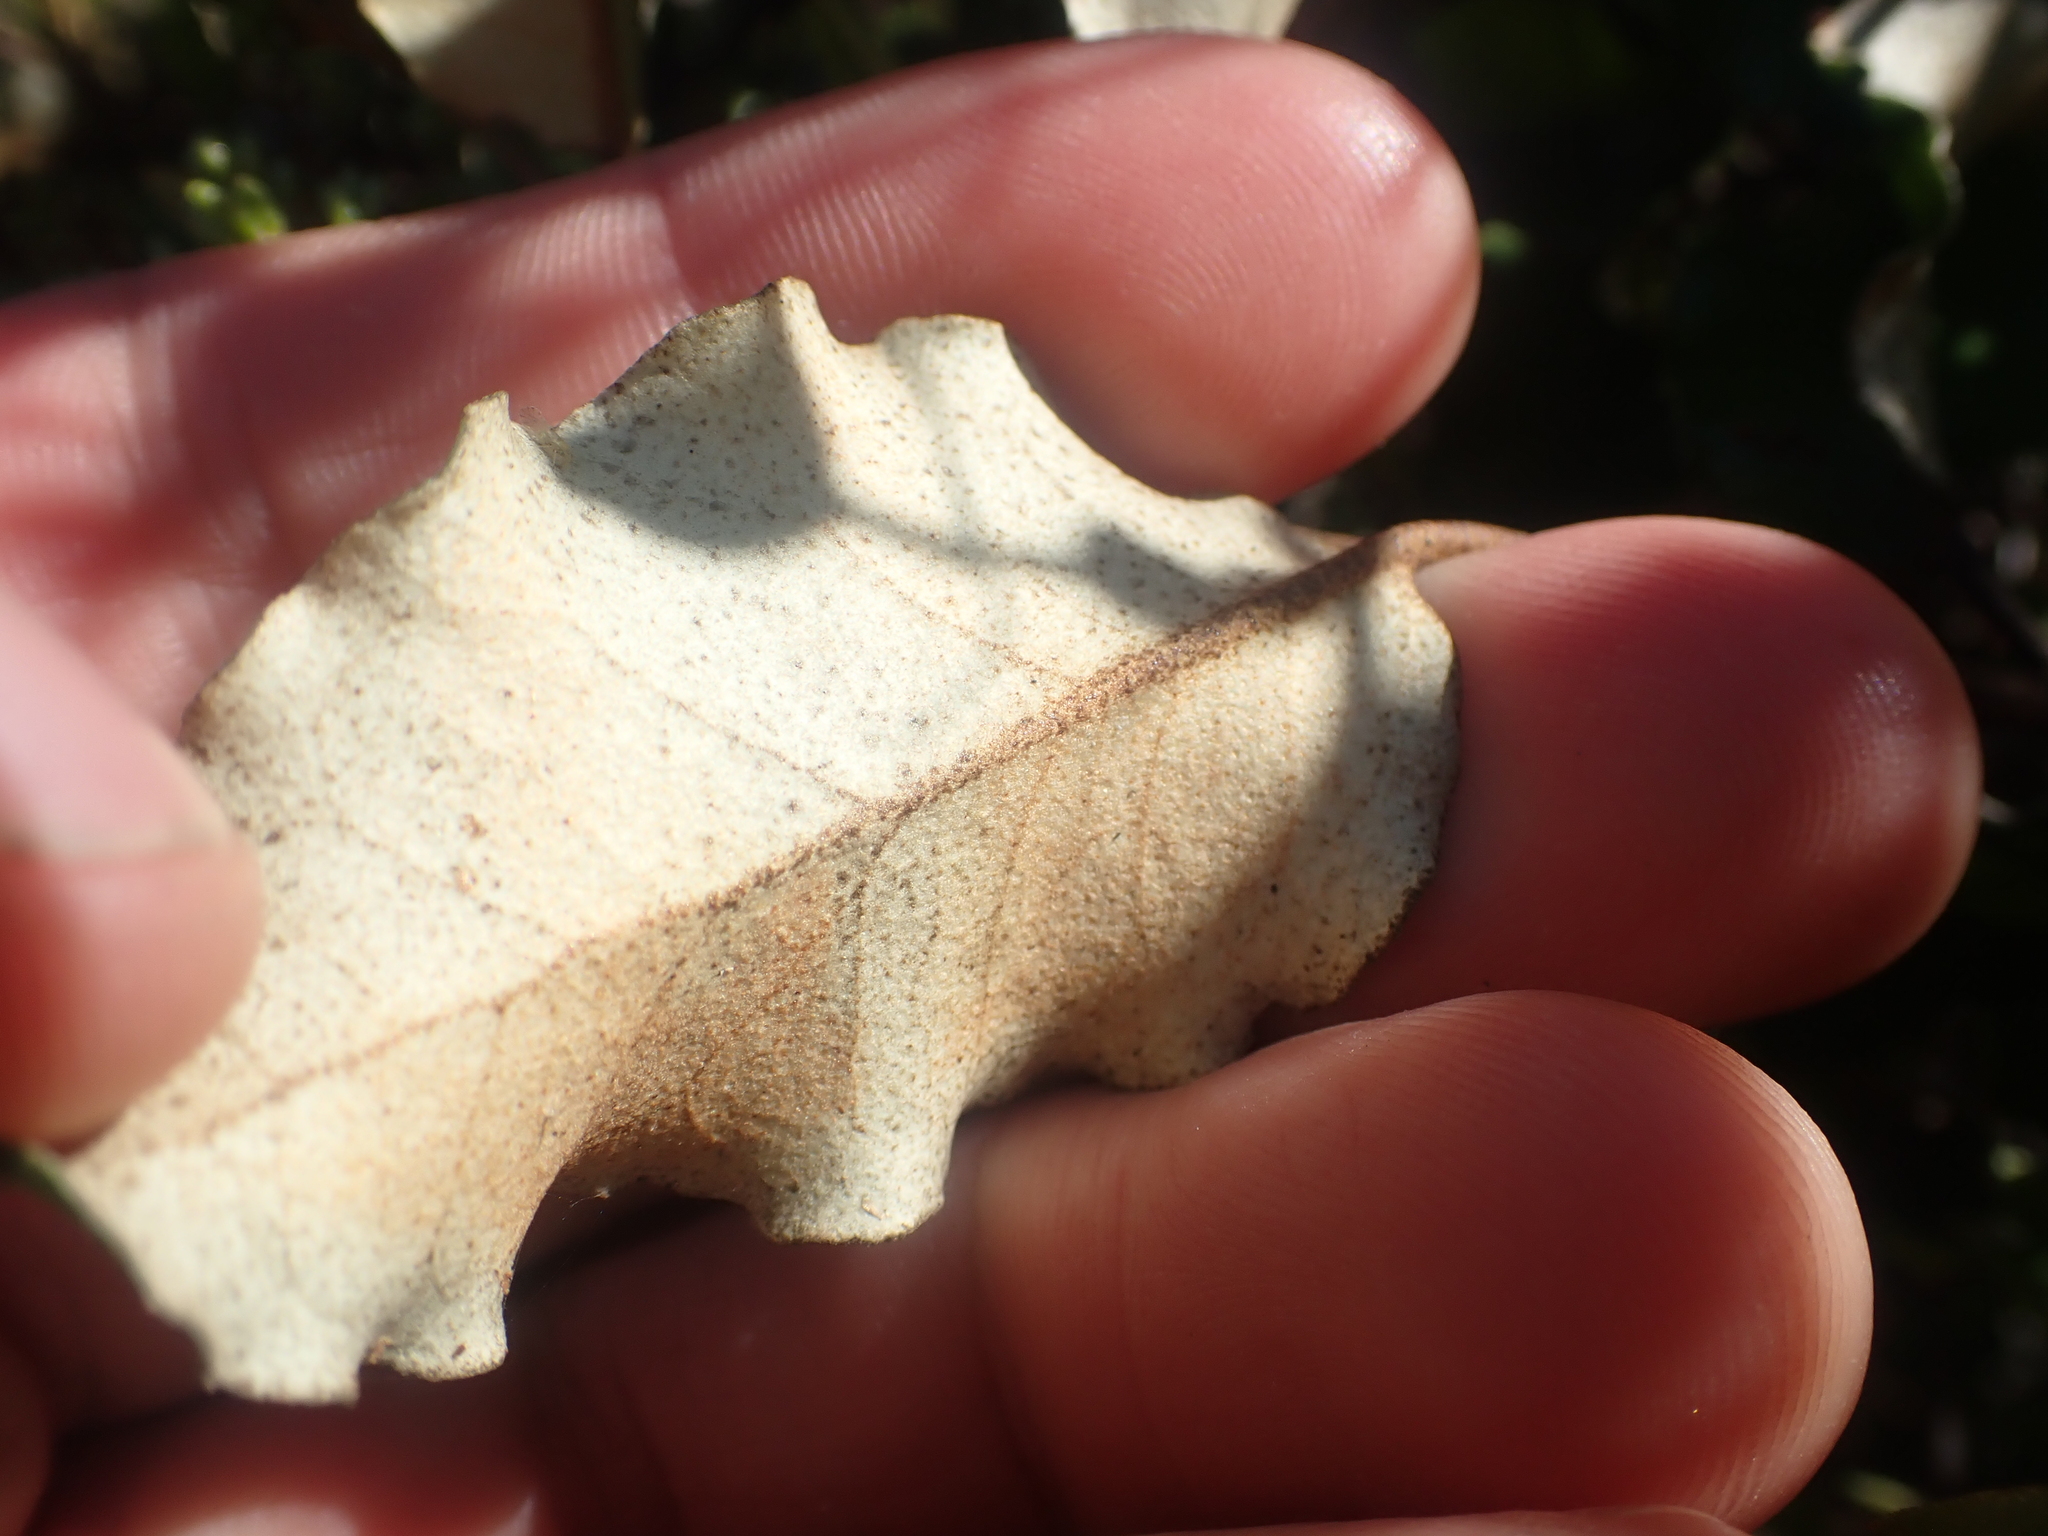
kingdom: Plantae
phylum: Tracheophyta
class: Magnoliopsida
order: Asterales
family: Asteraceae
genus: Olearia
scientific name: Olearia paniculata
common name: Akiraho
